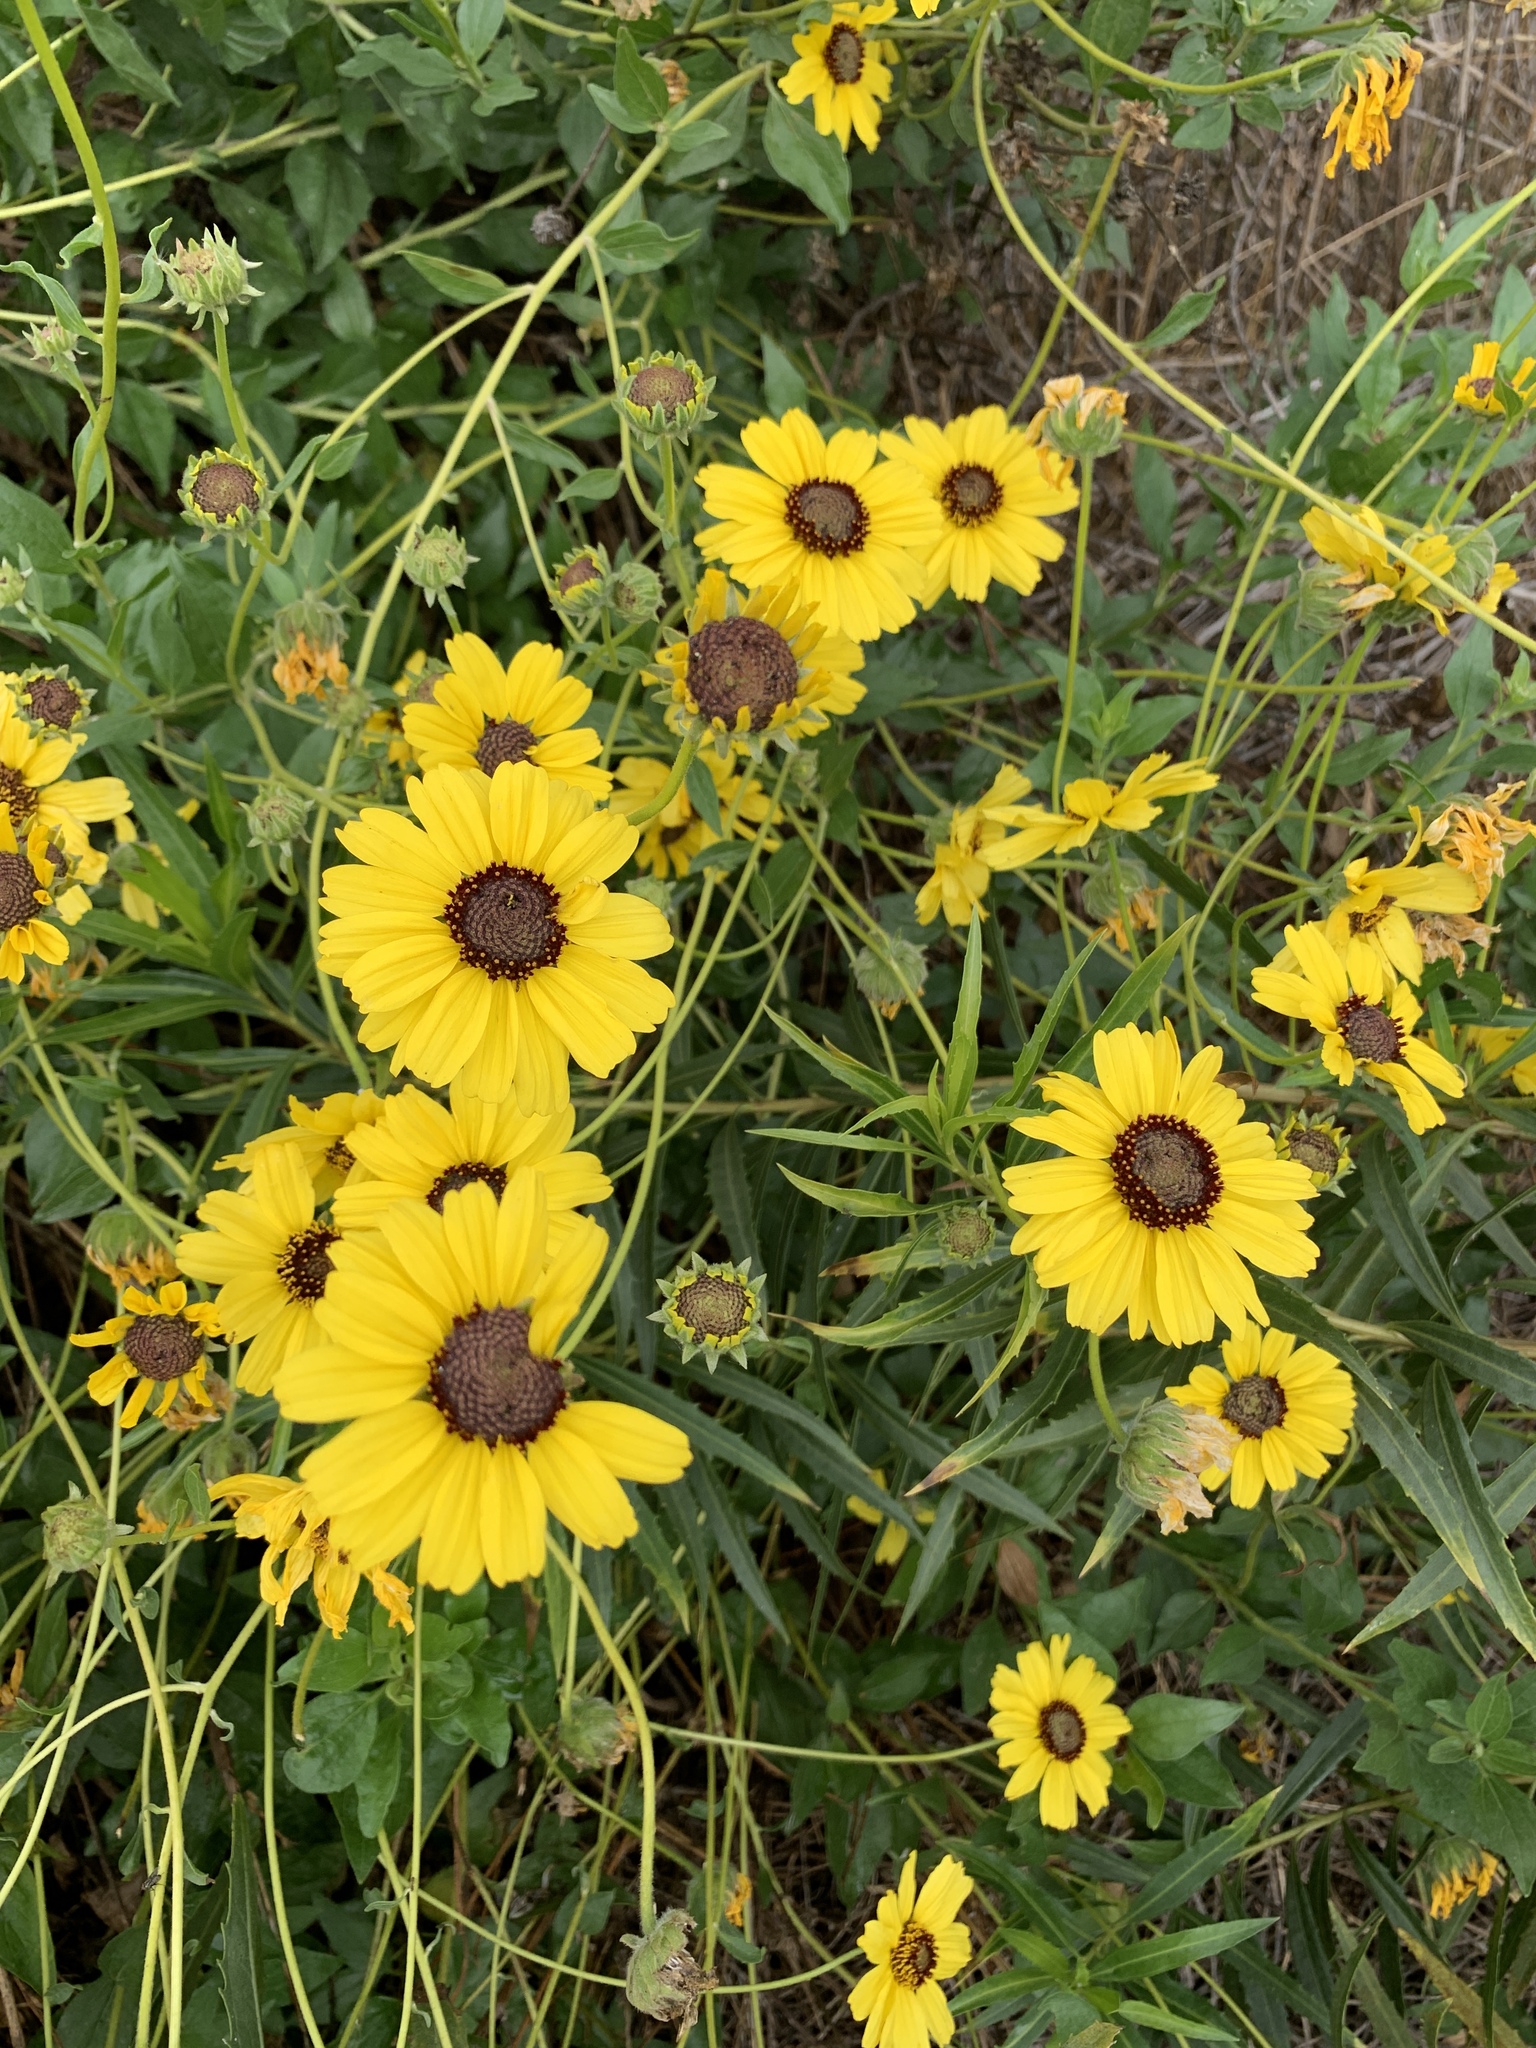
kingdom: Plantae
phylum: Tracheophyta
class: Magnoliopsida
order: Asterales
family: Asteraceae
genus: Encelia
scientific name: Encelia californica
